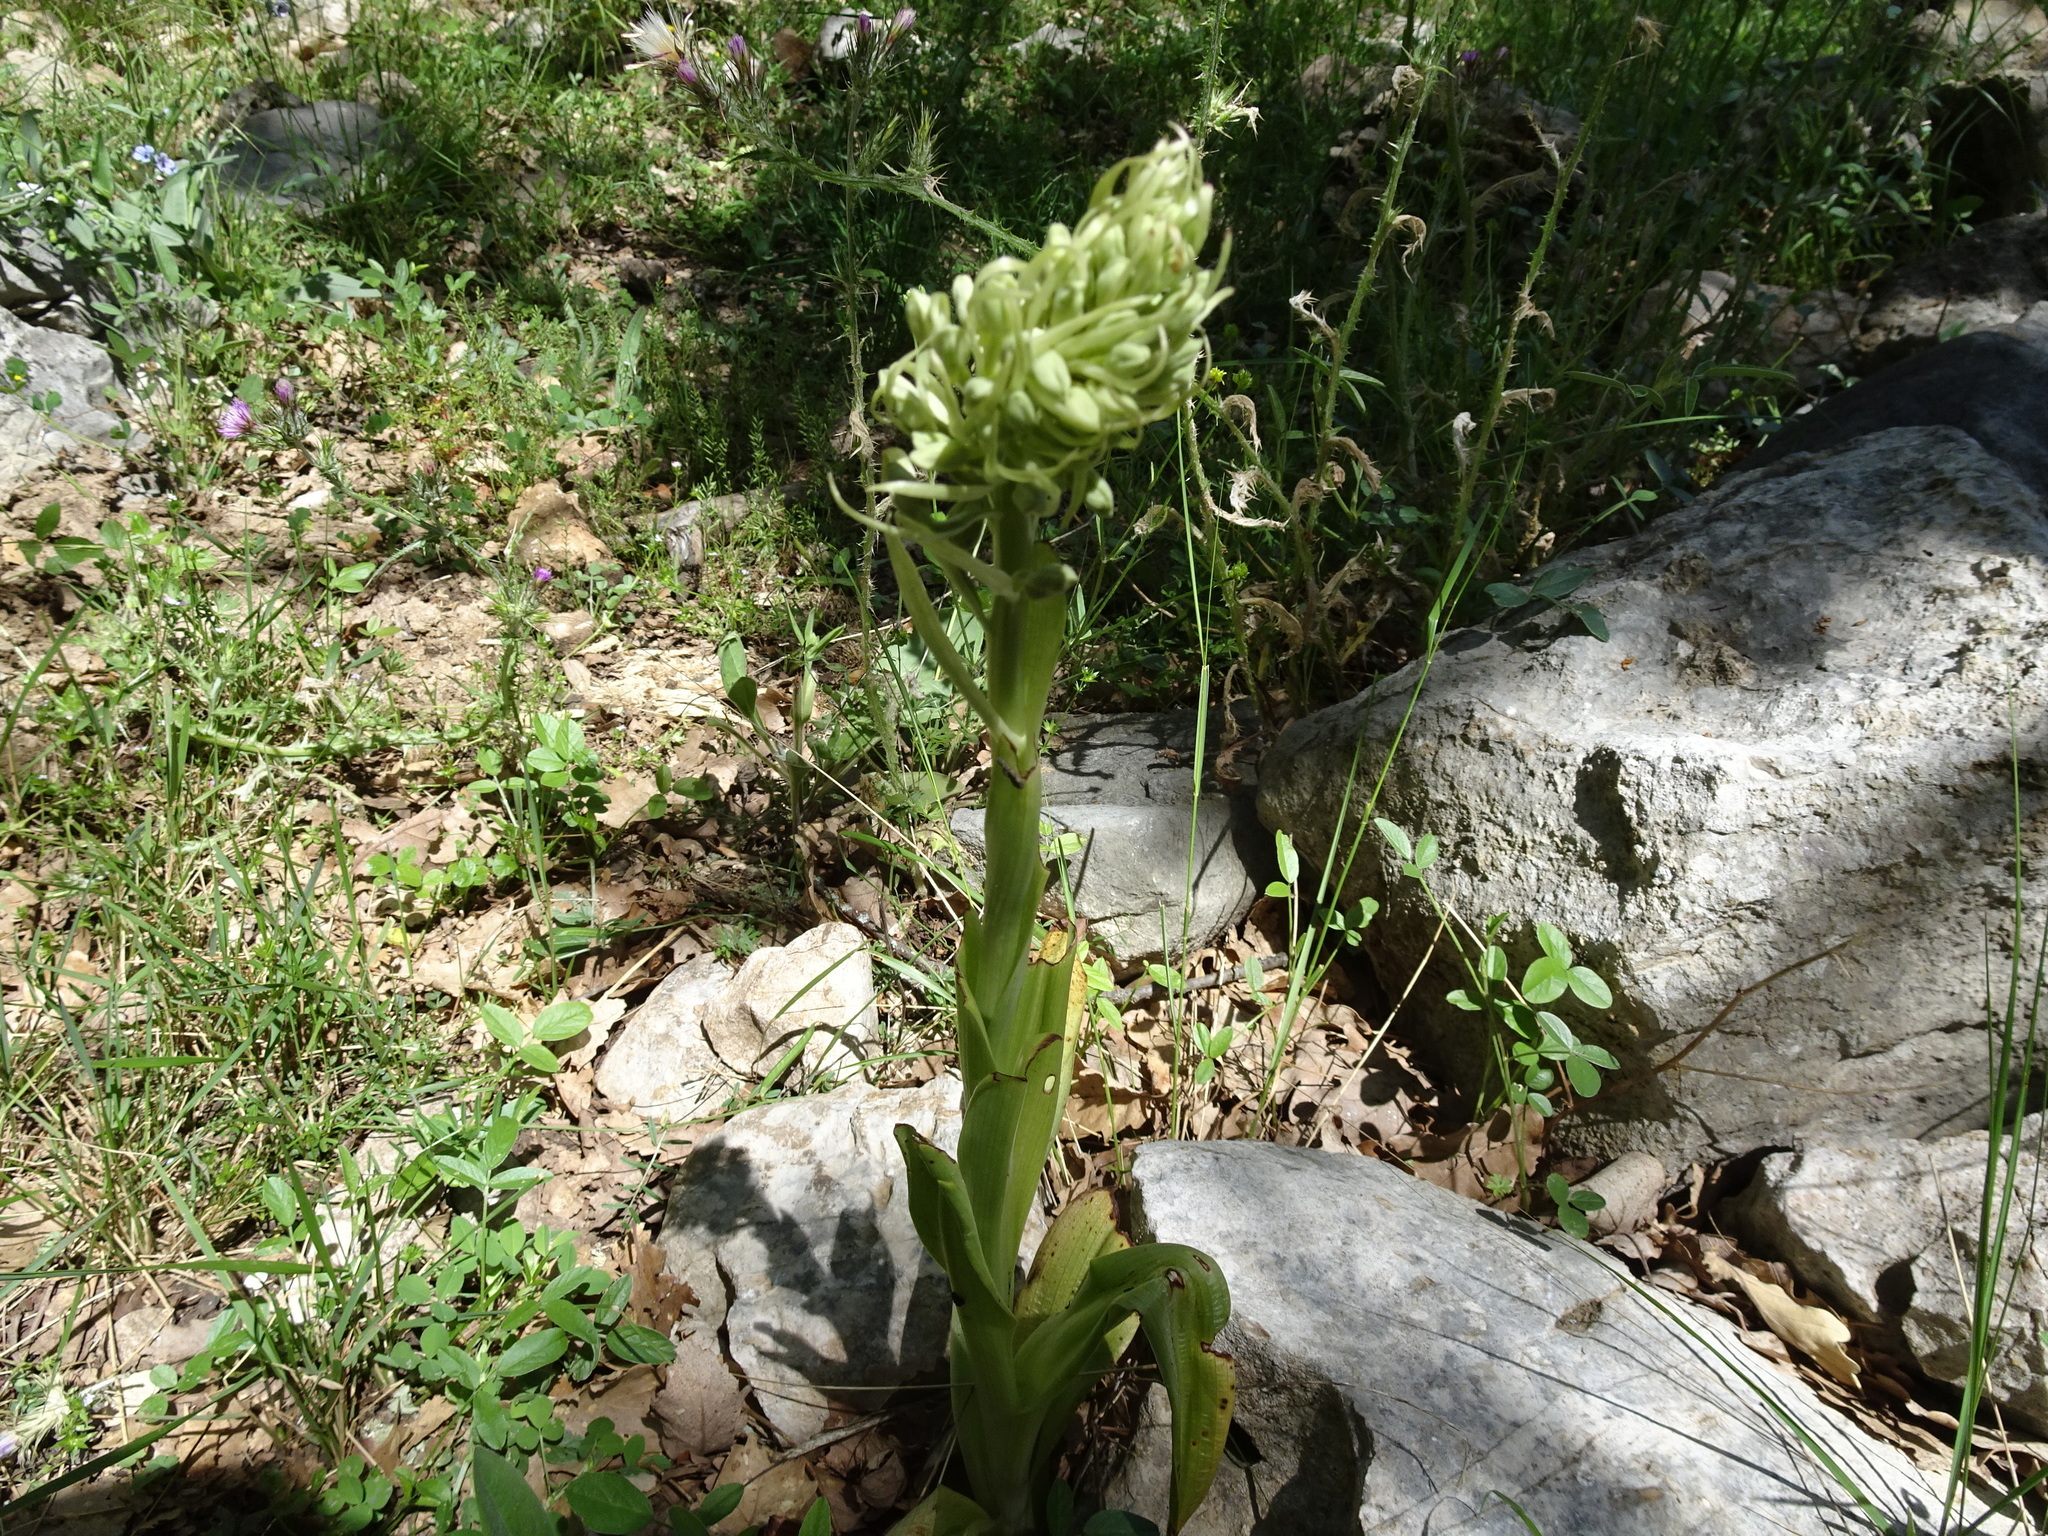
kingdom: Plantae
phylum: Tracheophyta
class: Liliopsida
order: Asparagales
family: Orchidaceae
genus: Himantoglossum
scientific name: Himantoglossum hircinum
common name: Lizard orchid
